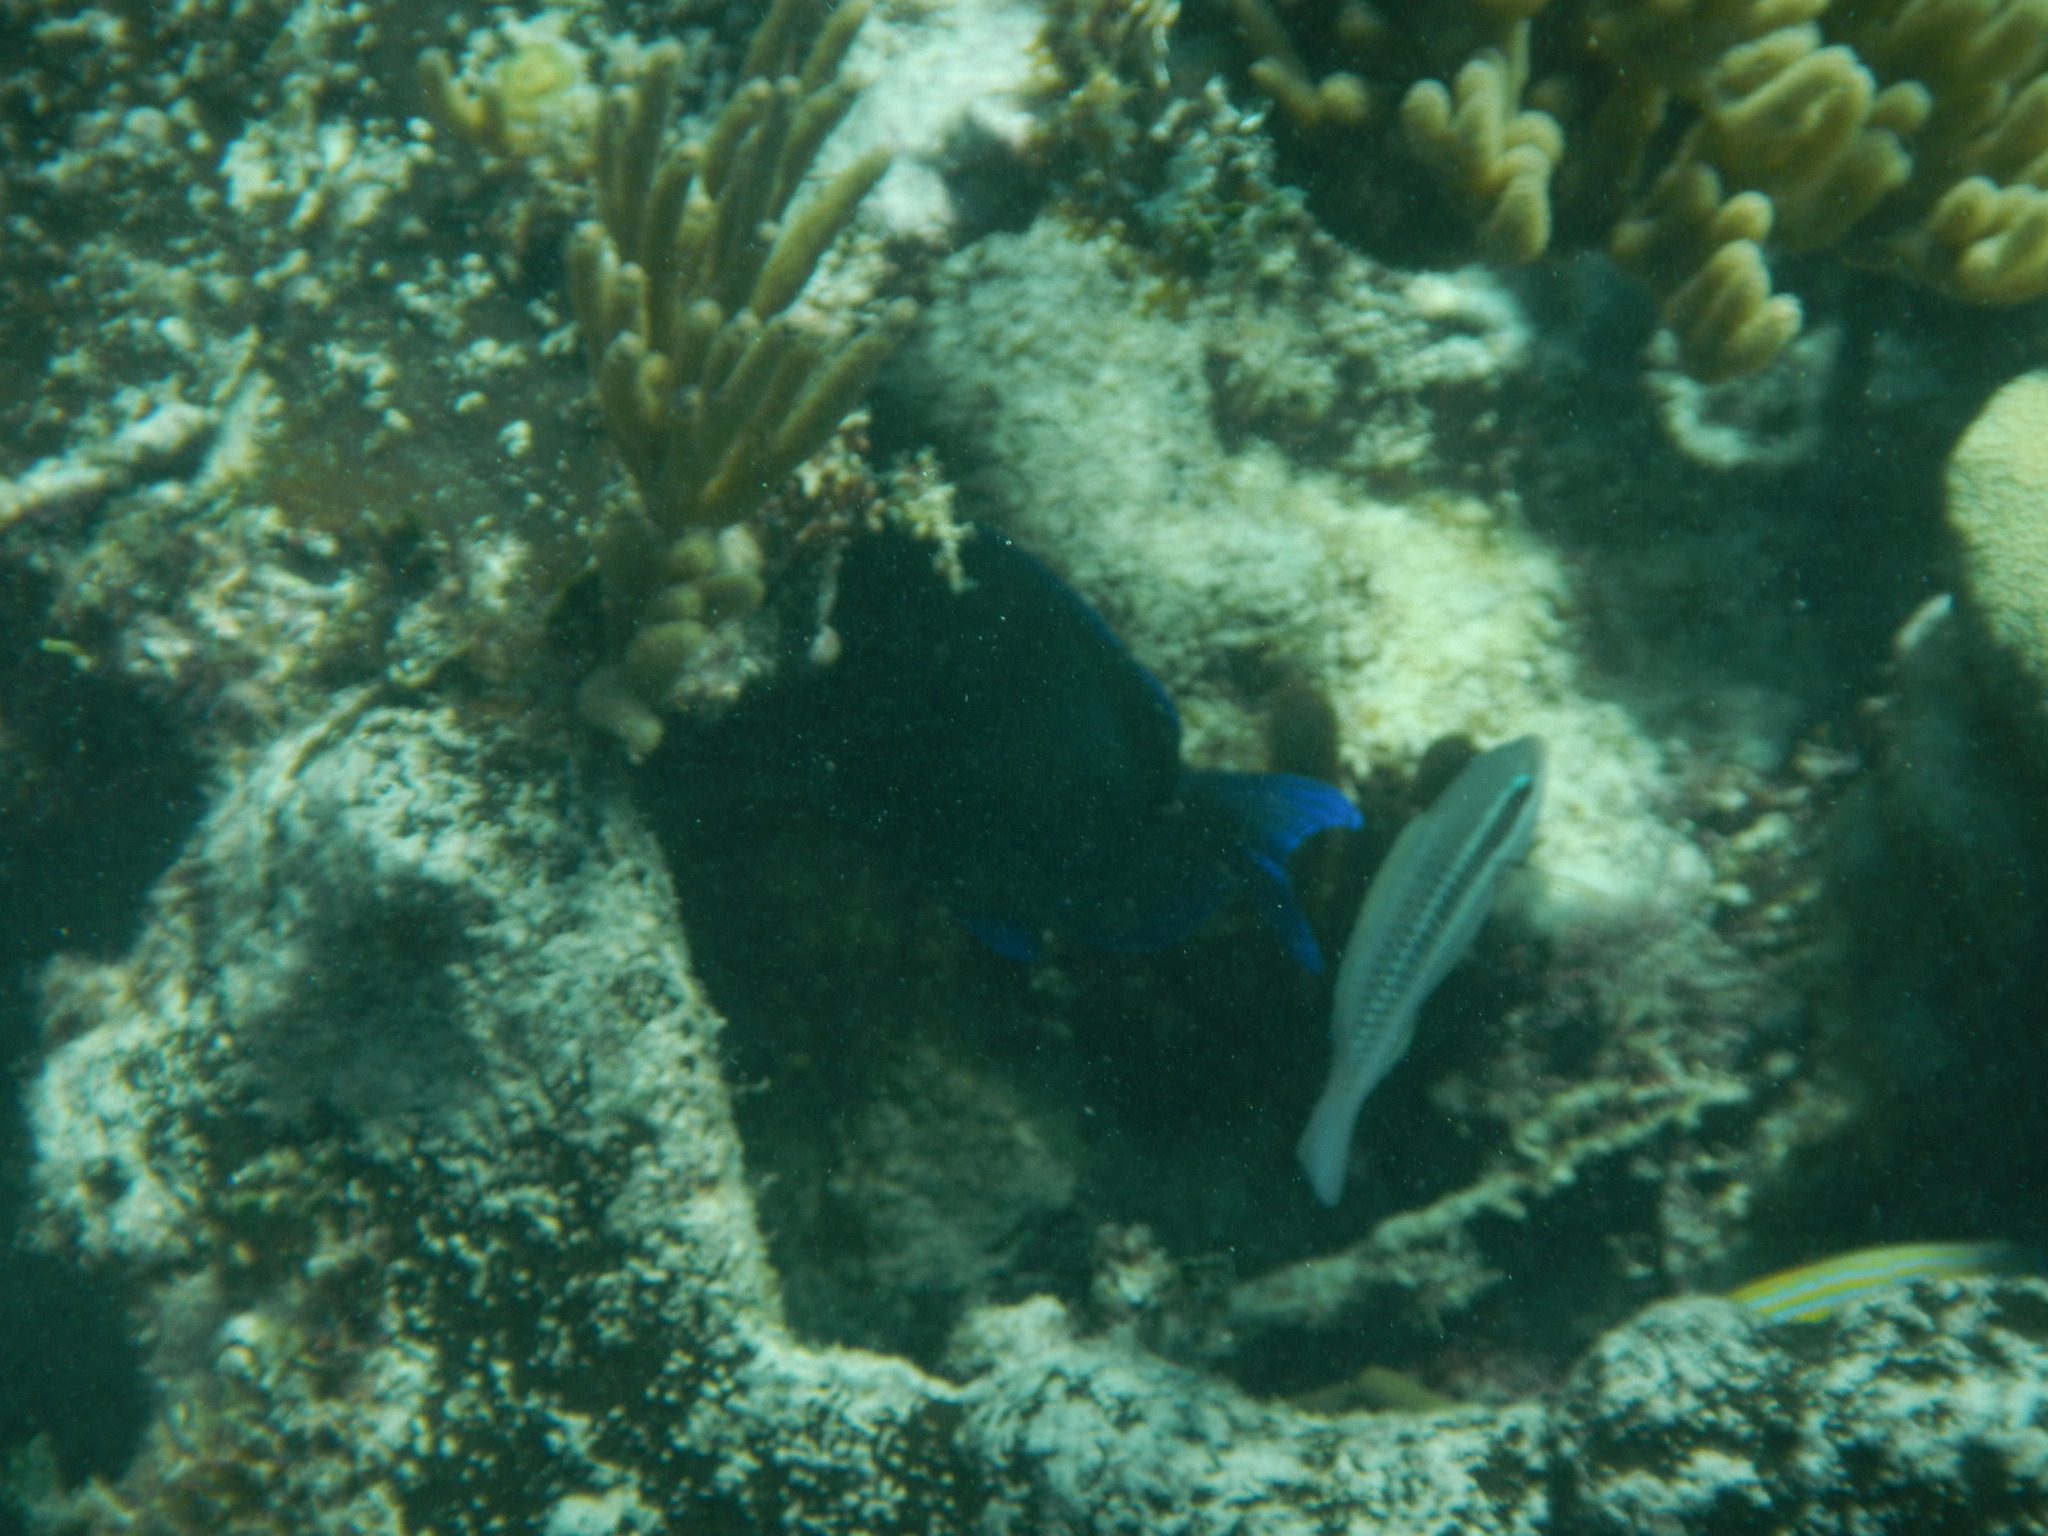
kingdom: Animalia
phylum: Chordata
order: Perciformes
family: Scaridae
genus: Scarus
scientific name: Scarus iseri
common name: Striped parrotfish
